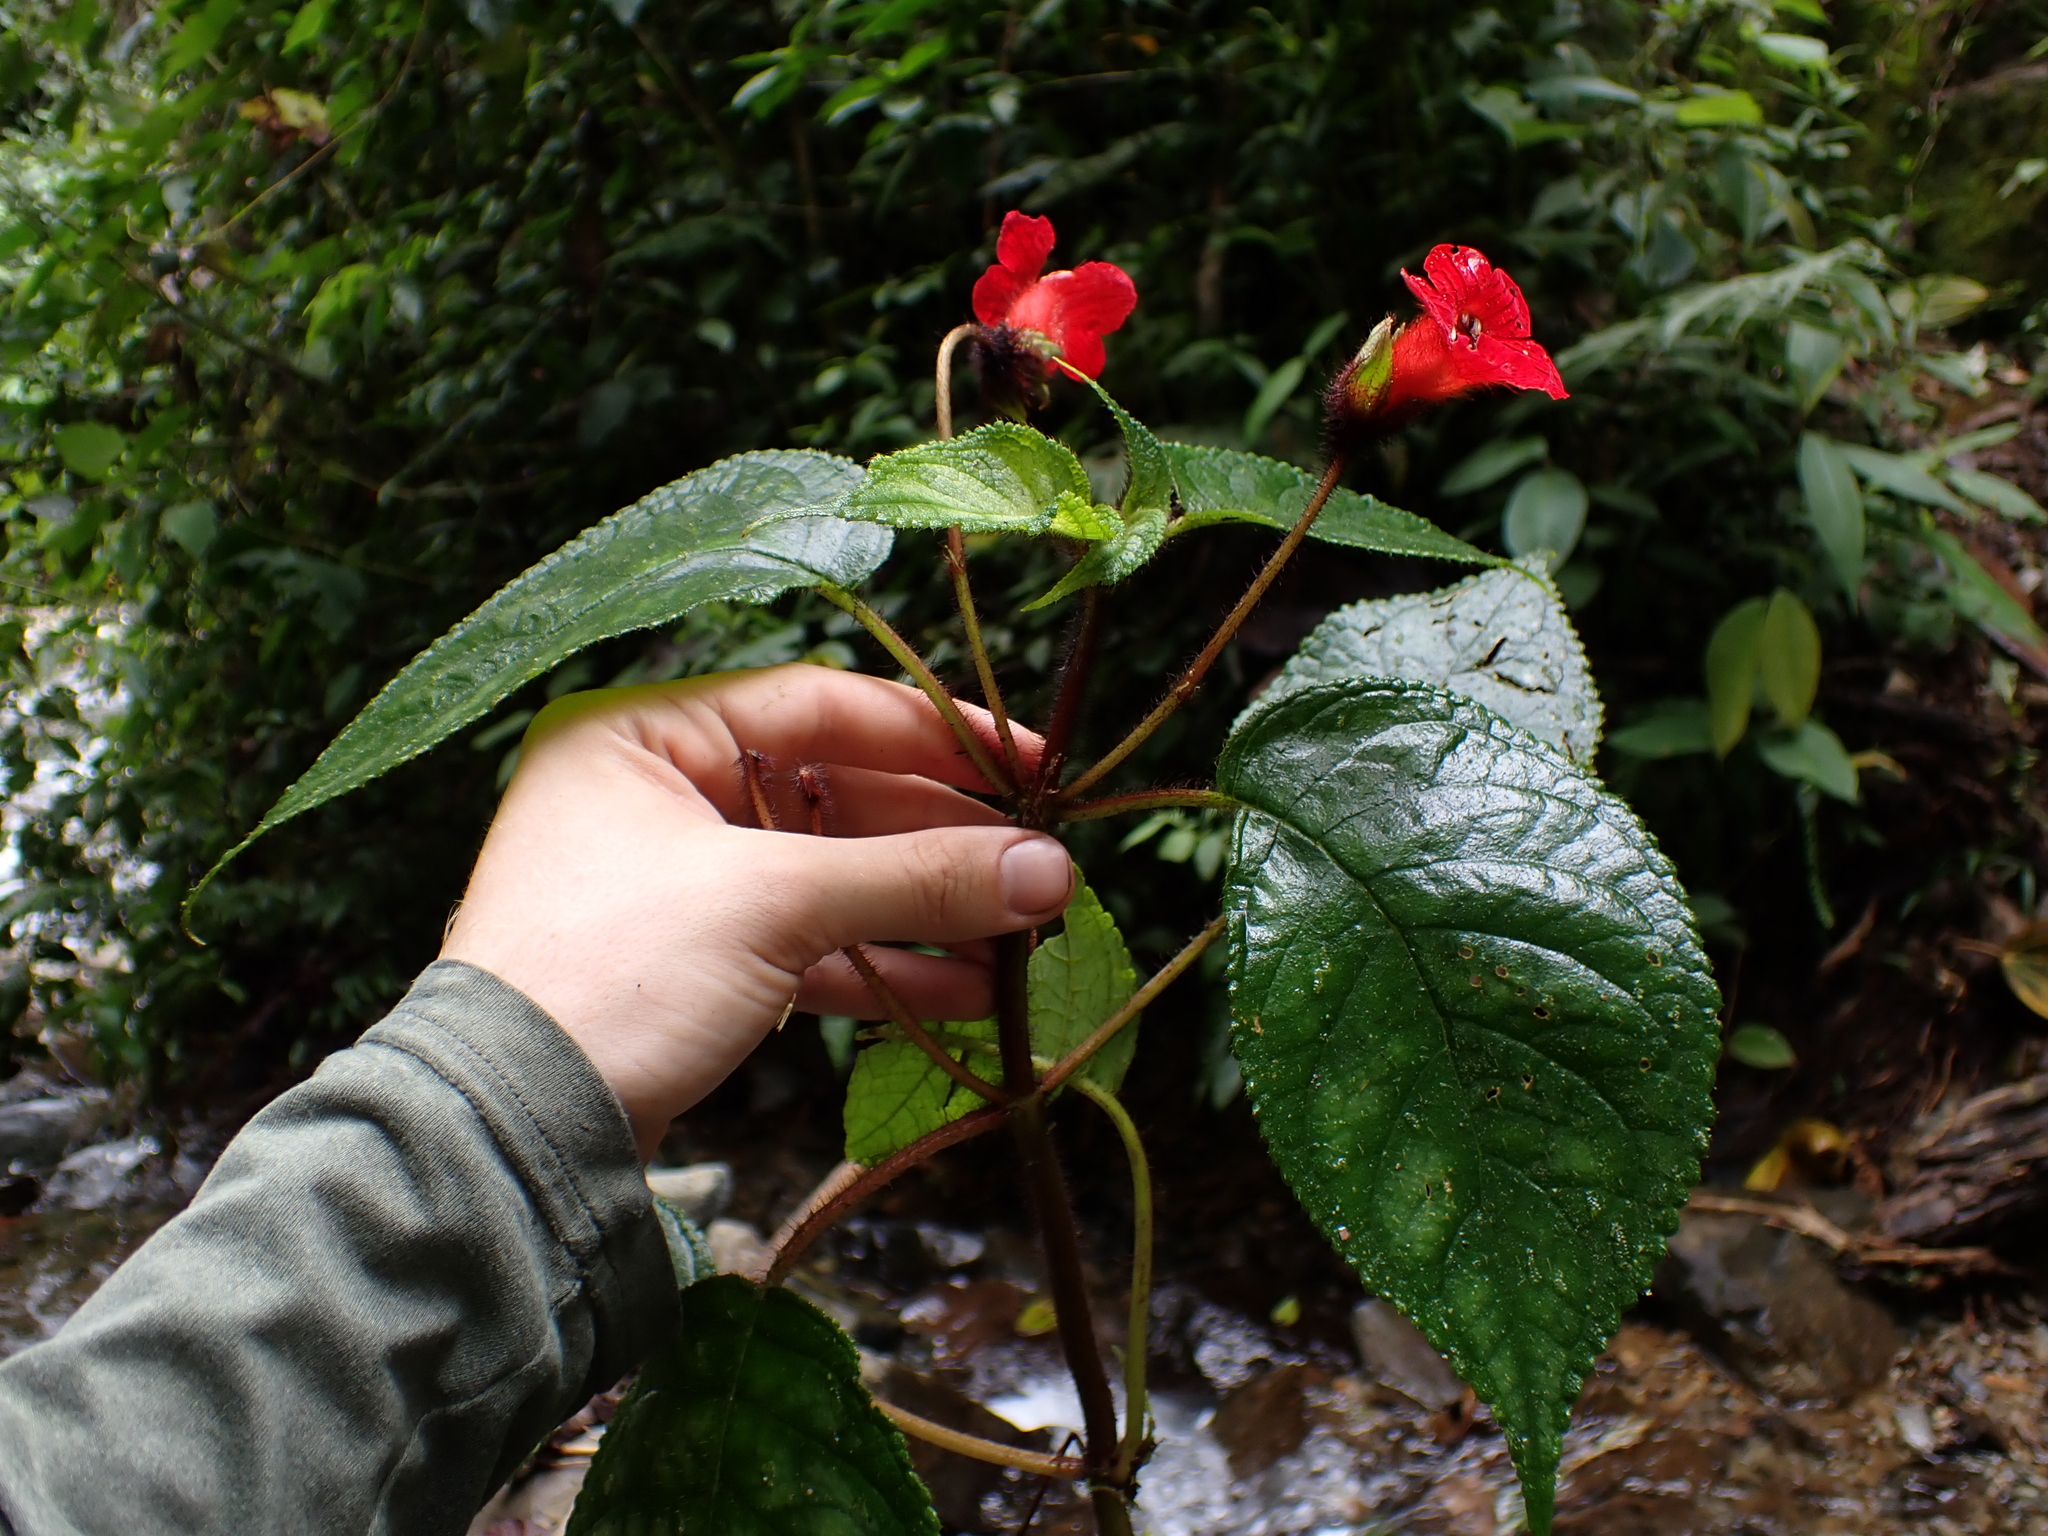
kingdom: Plantae
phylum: Tracheophyta
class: Magnoliopsida
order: Lamiales
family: Gesneriaceae
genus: Kohleria
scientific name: Kohleria inaequalis
